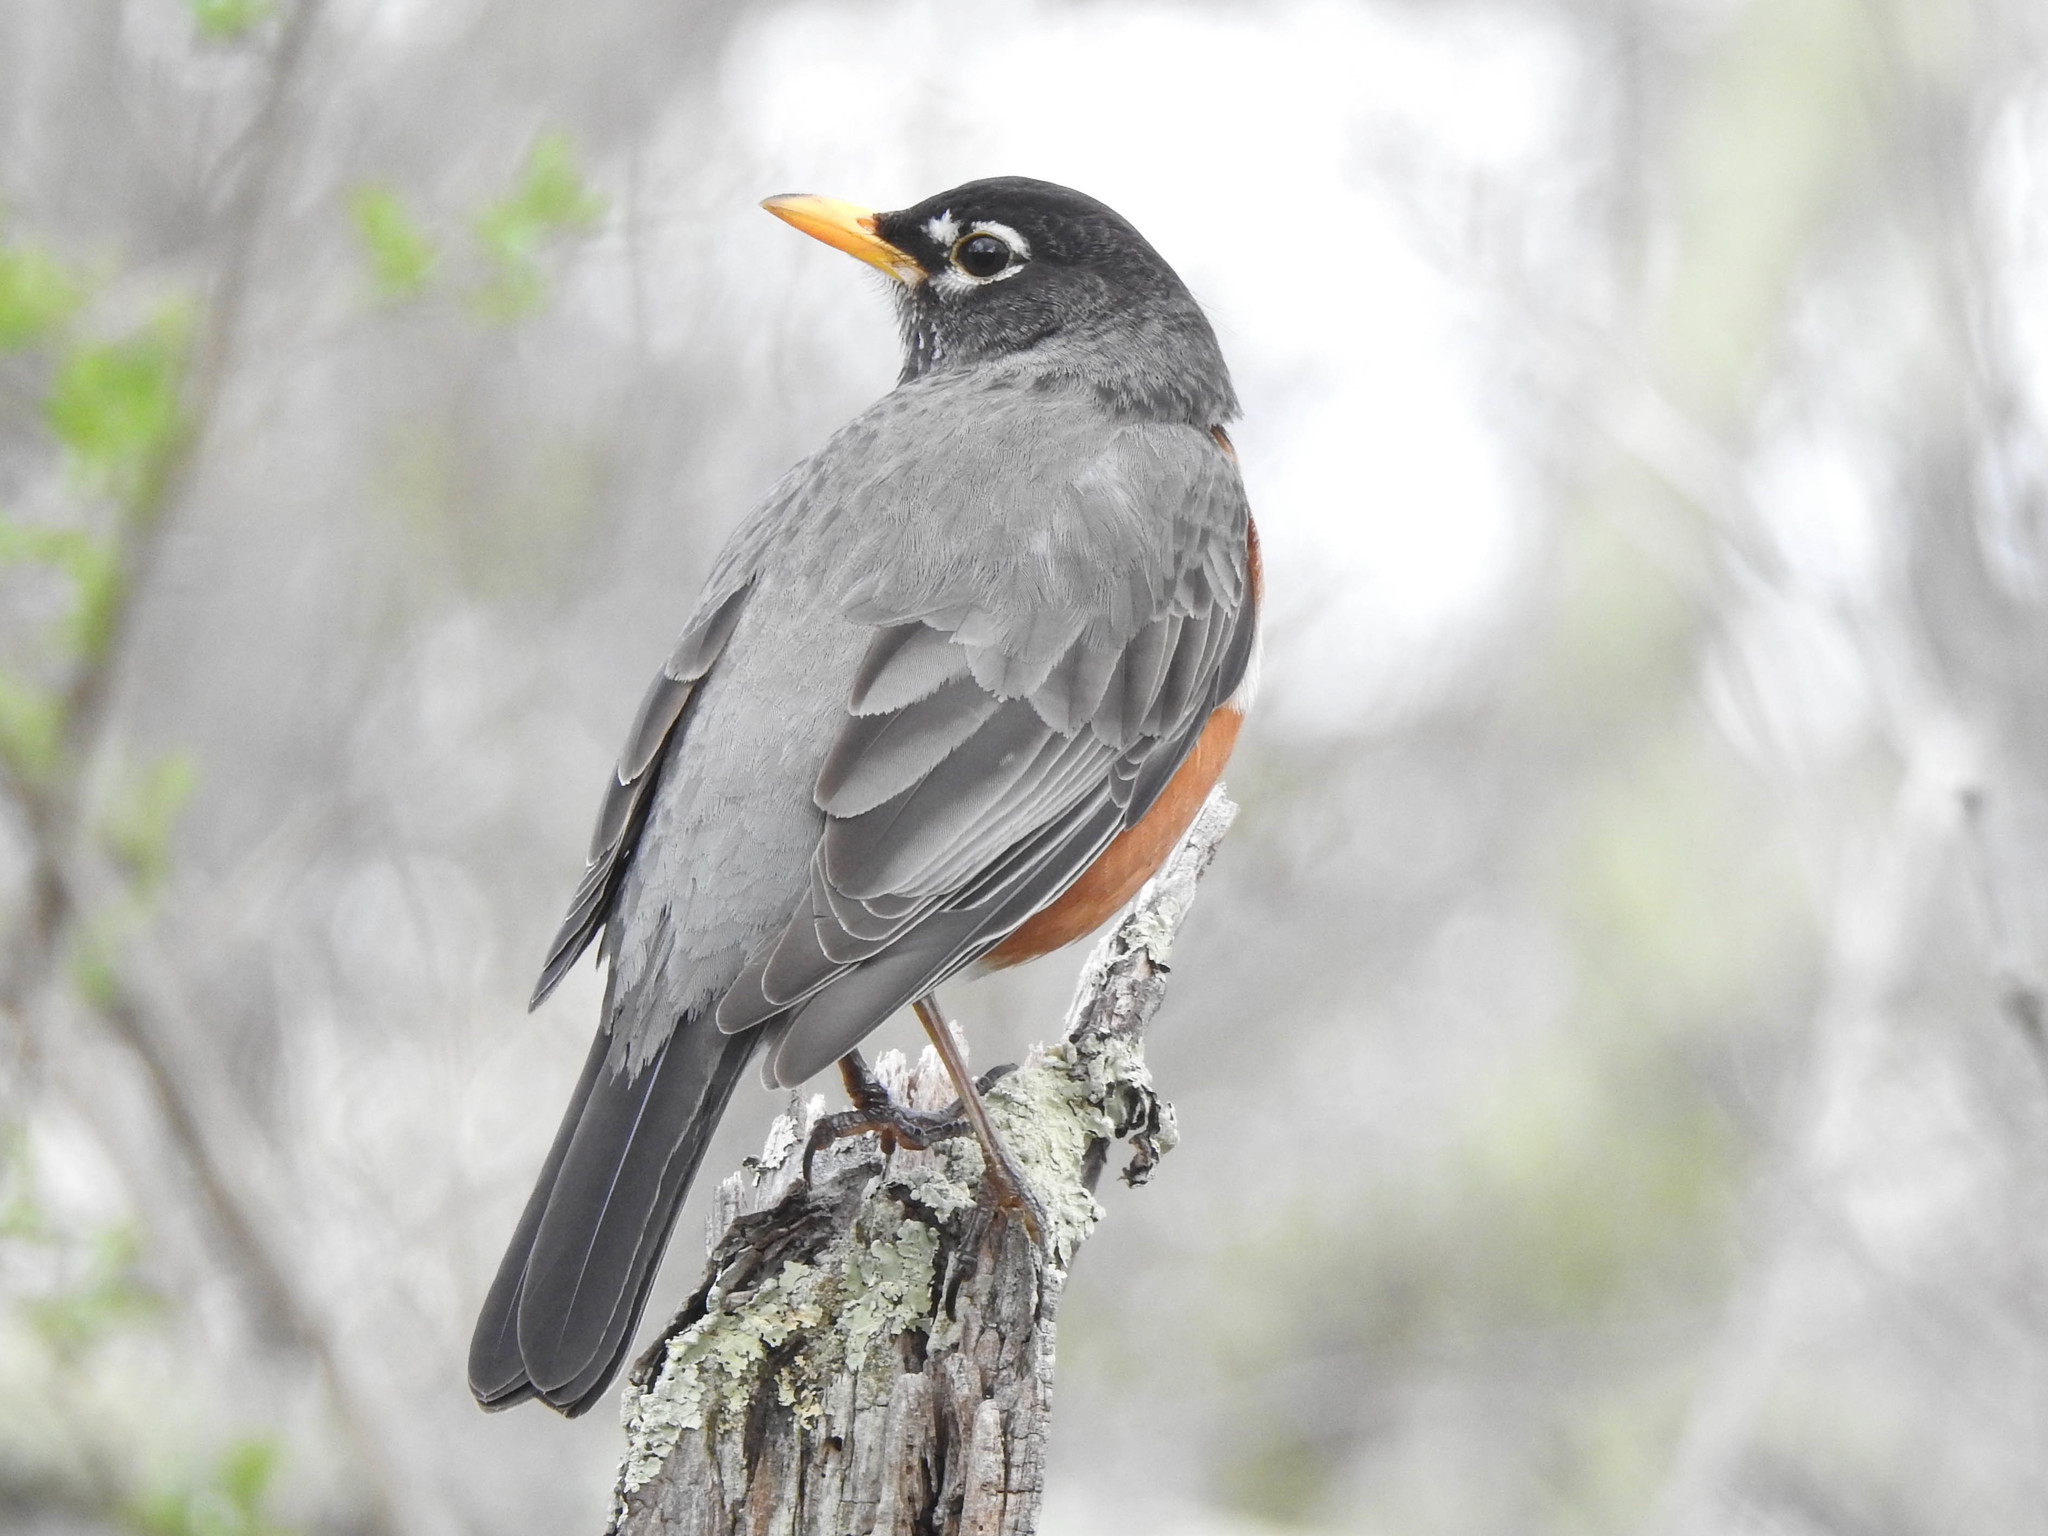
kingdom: Animalia
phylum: Chordata
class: Aves
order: Passeriformes
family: Turdidae
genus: Turdus
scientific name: Turdus migratorius
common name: American robin
